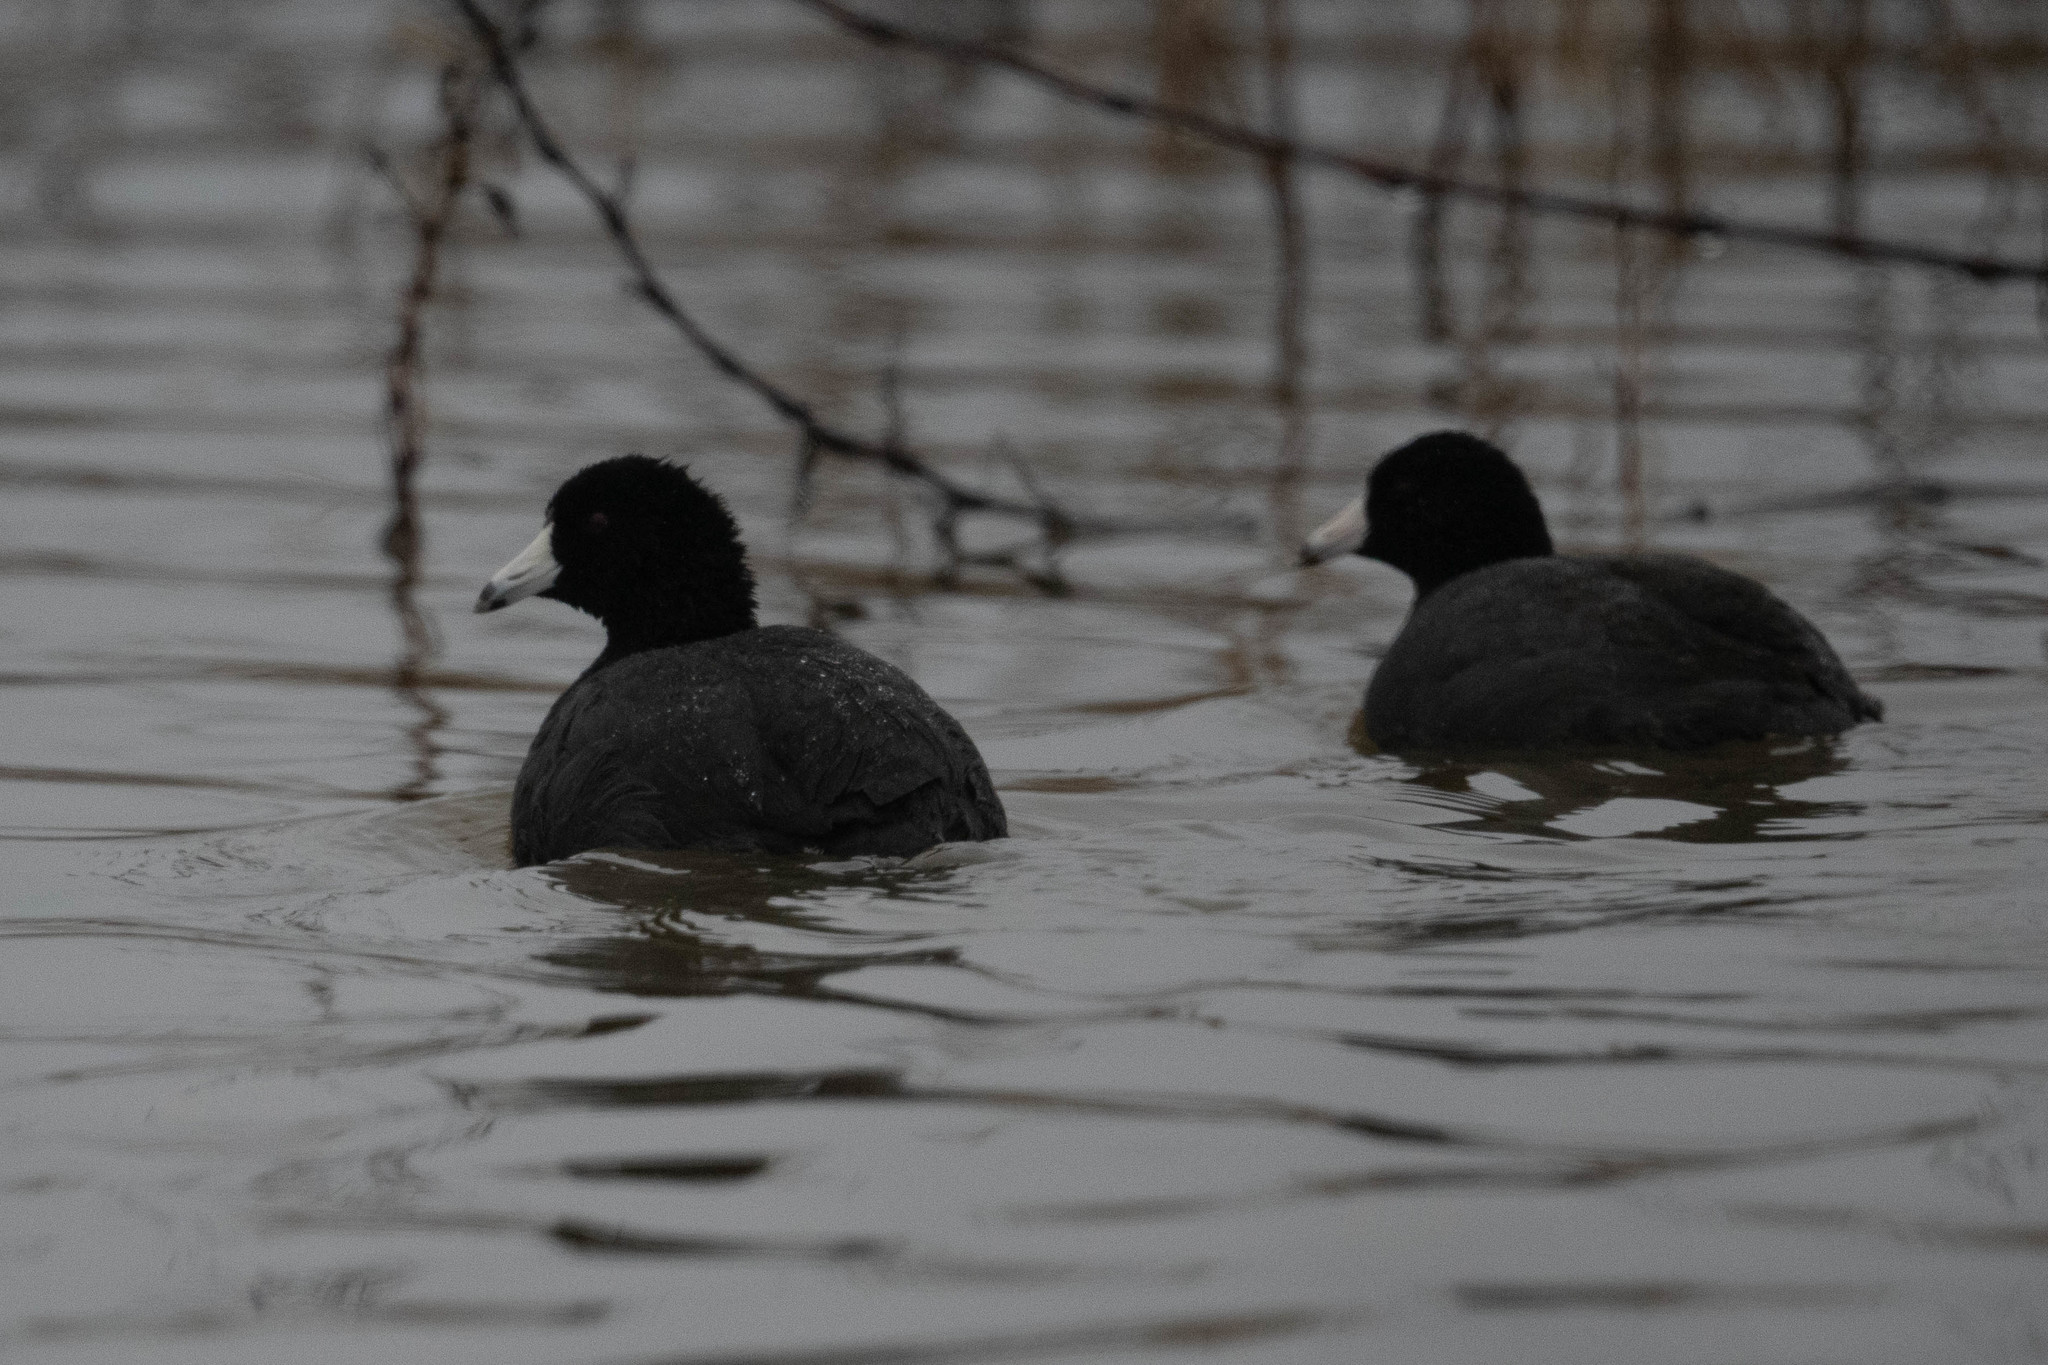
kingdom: Animalia
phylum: Chordata
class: Aves
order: Gruiformes
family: Rallidae
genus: Fulica
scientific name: Fulica americana
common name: American coot
